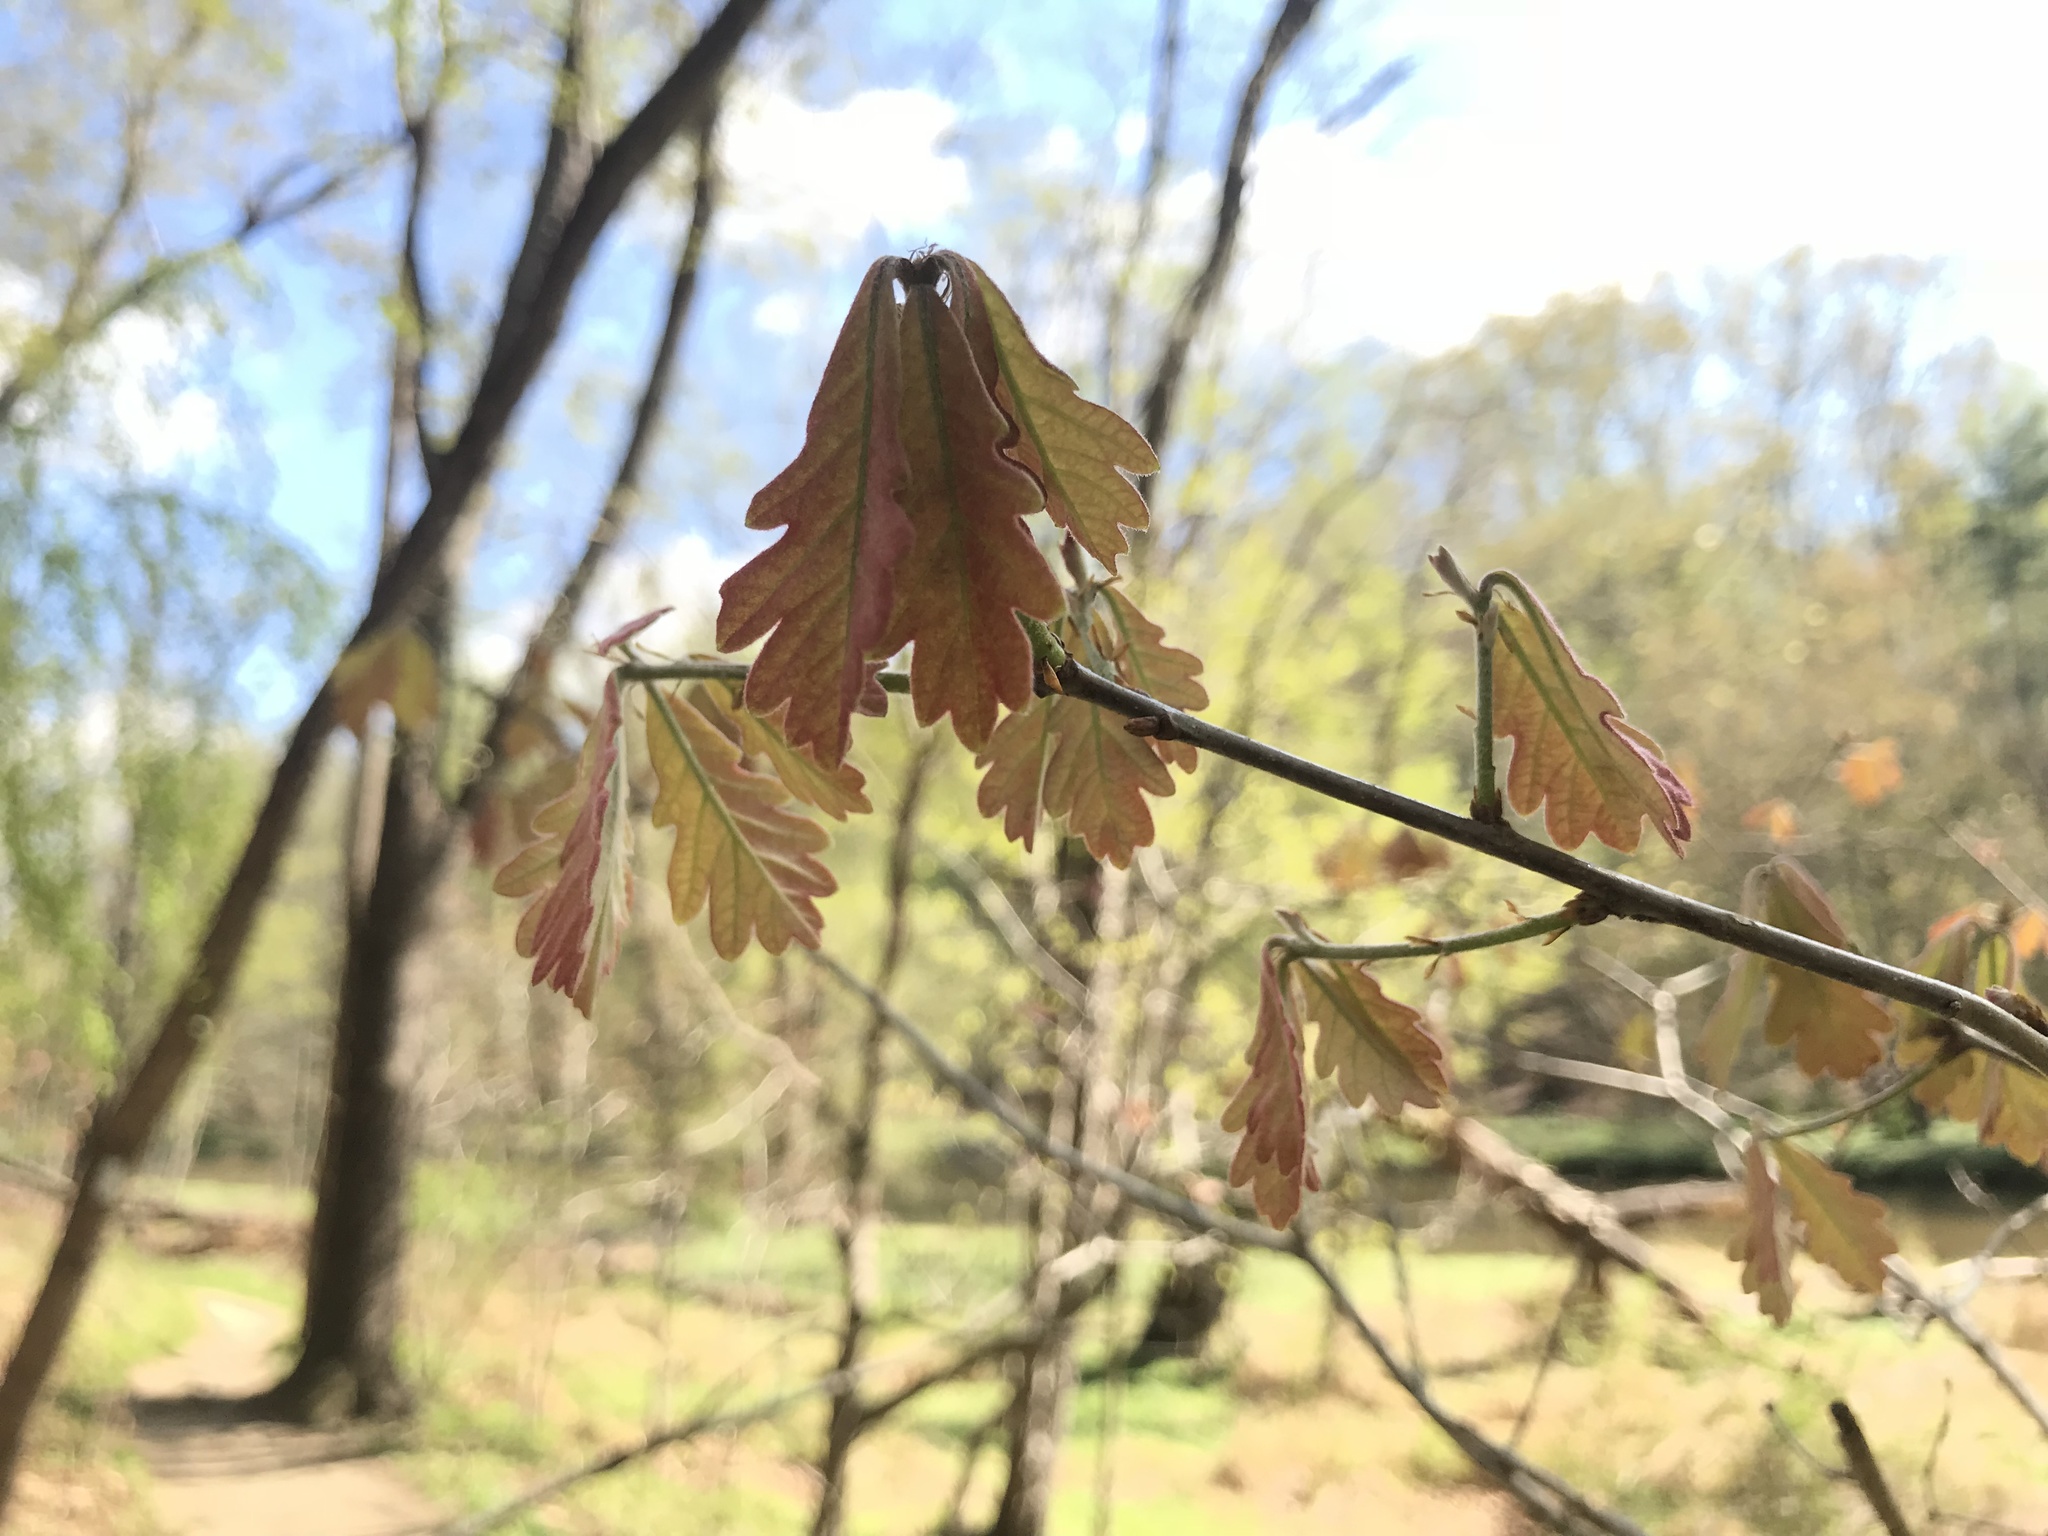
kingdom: Plantae
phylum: Tracheophyta
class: Magnoliopsida
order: Fagales
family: Fagaceae
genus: Quercus
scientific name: Quercus alba
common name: White oak
